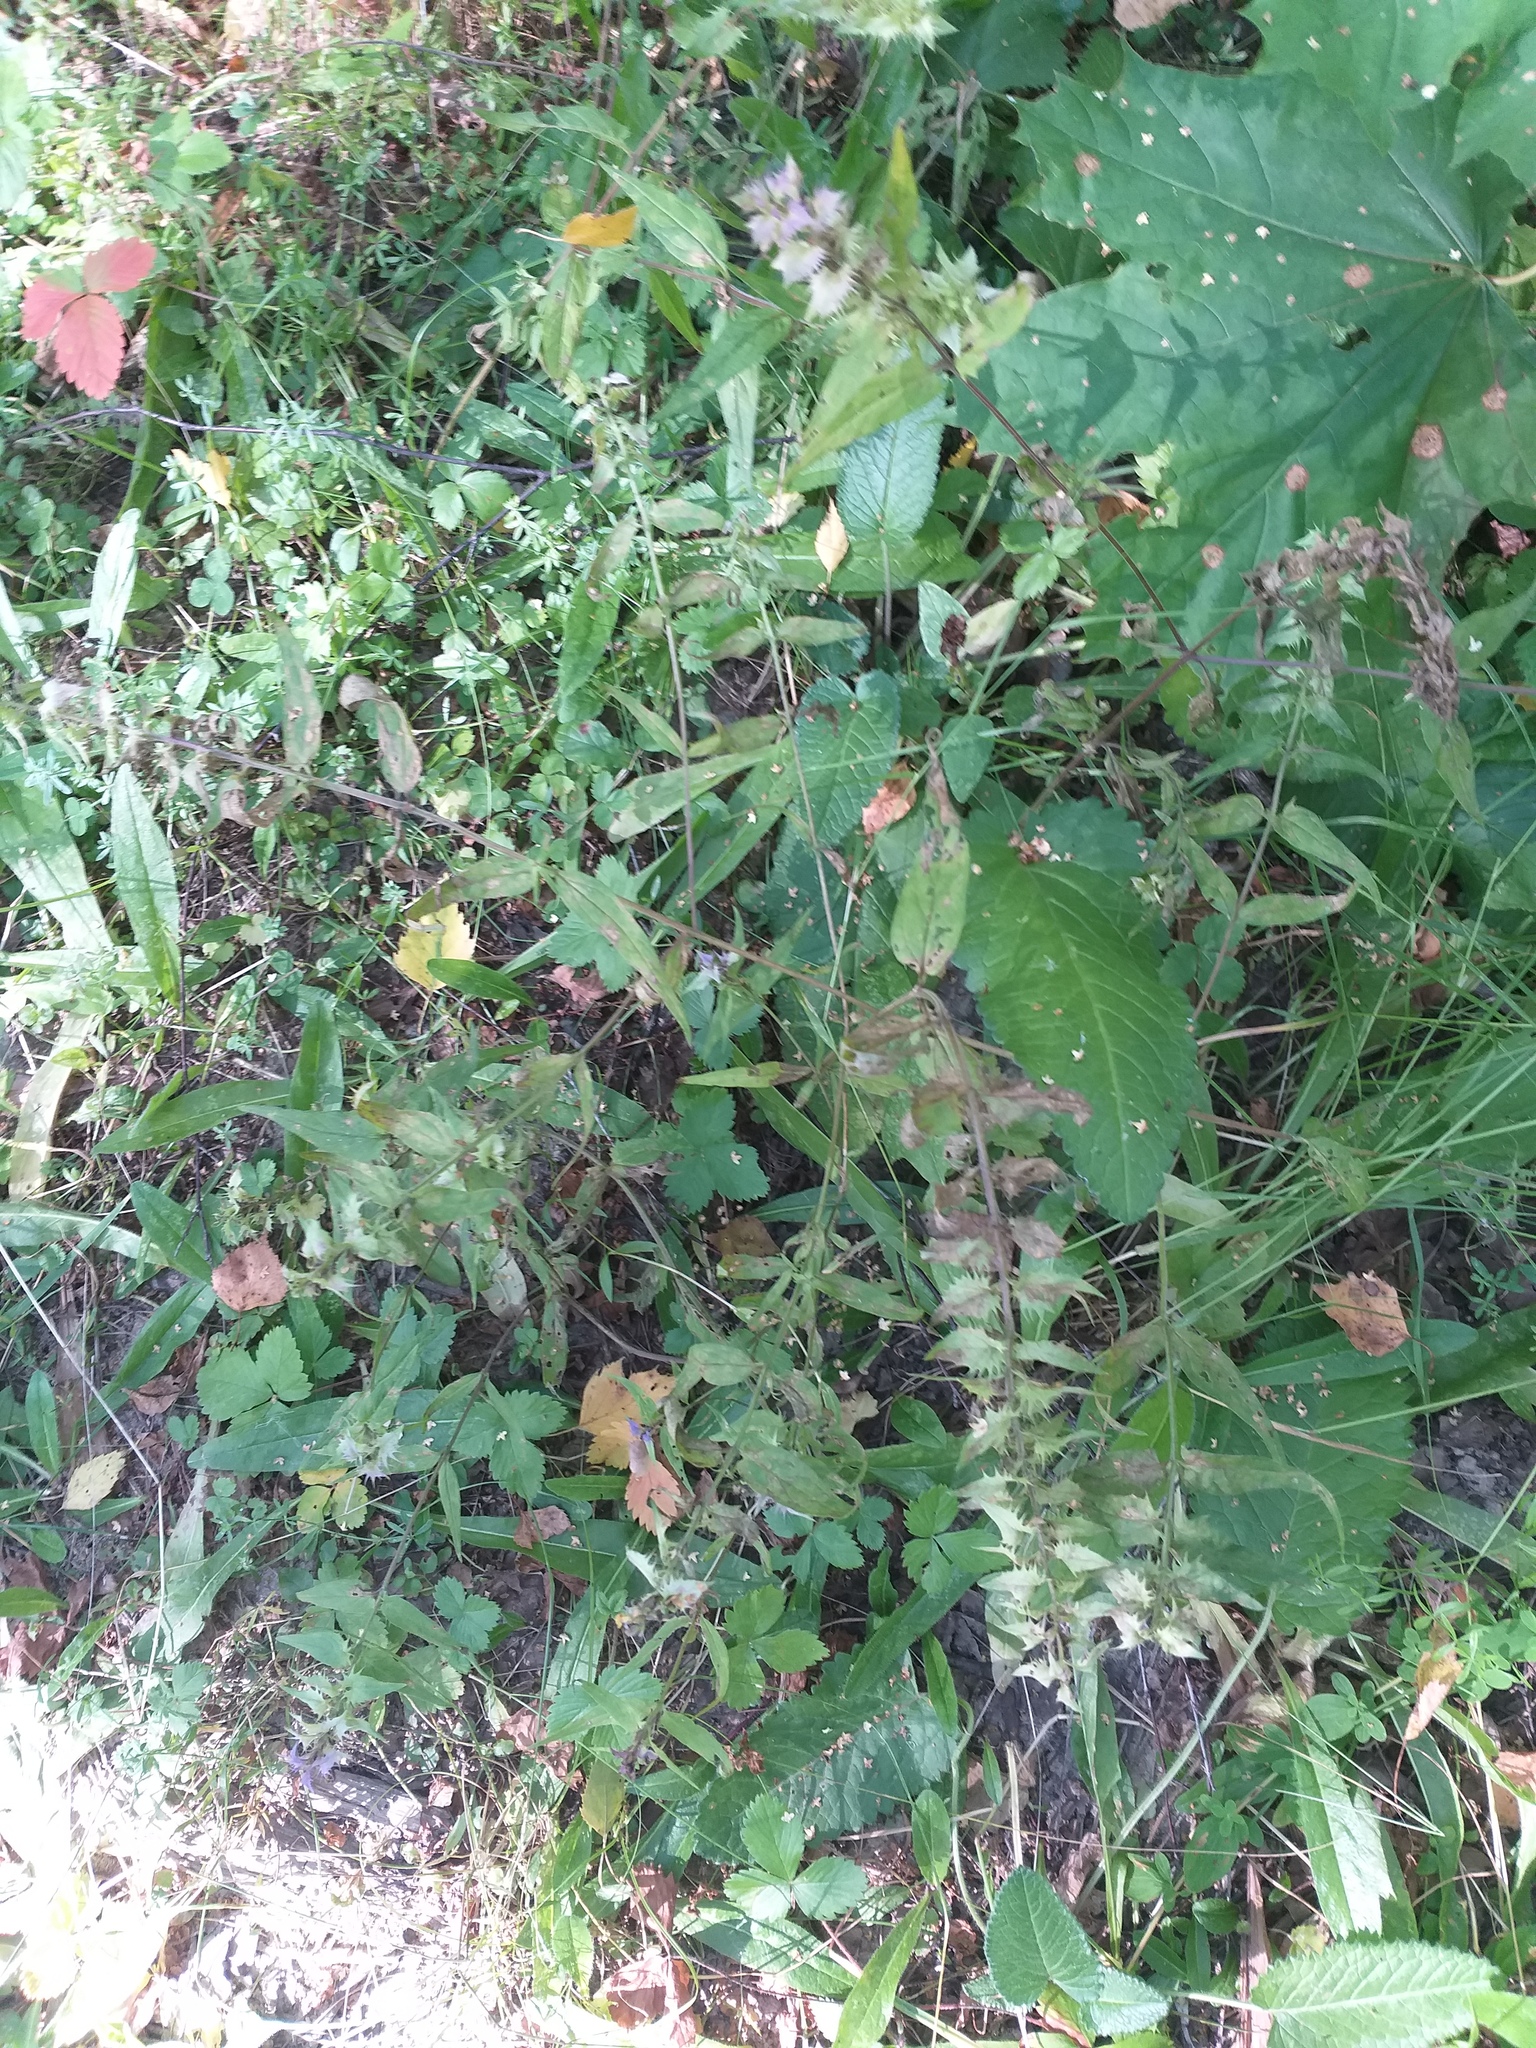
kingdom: Plantae
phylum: Tracheophyta
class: Magnoliopsida
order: Lamiales
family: Orobanchaceae
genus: Melampyrum
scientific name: Melampyrum nemorosum
